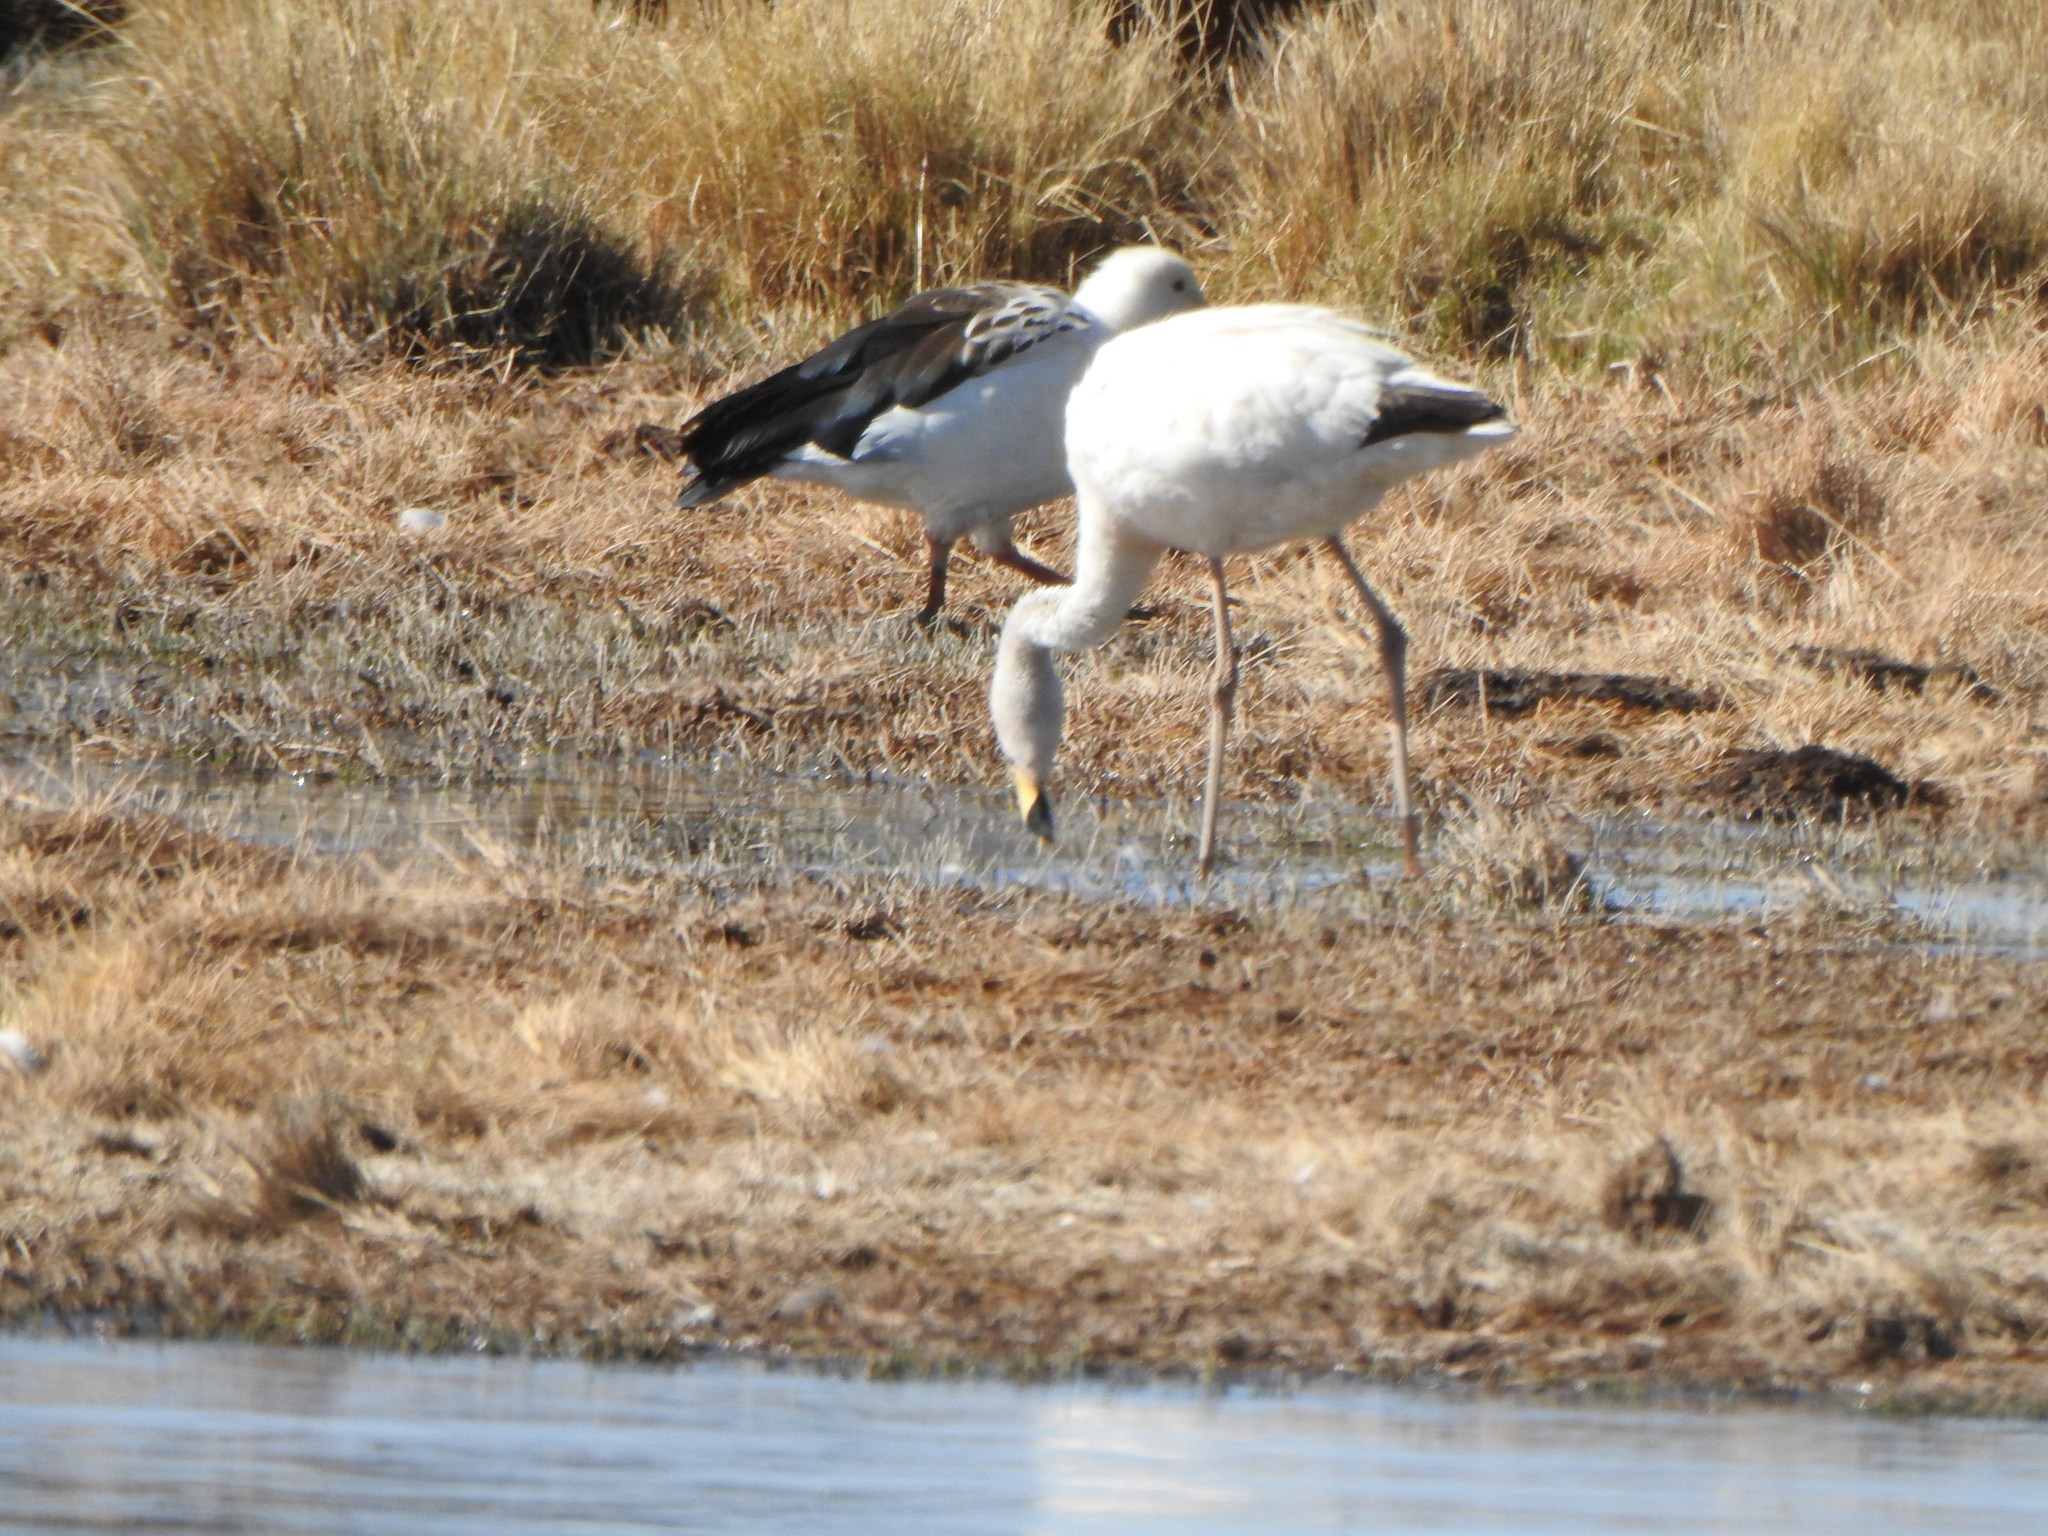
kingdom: Animalia
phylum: Chordata
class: Aves
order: Phoenicopteriformes
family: Phoenicopteridae
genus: Phoenicoparrus
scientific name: Phoenicoparrus andinus
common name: Andean flamingo
